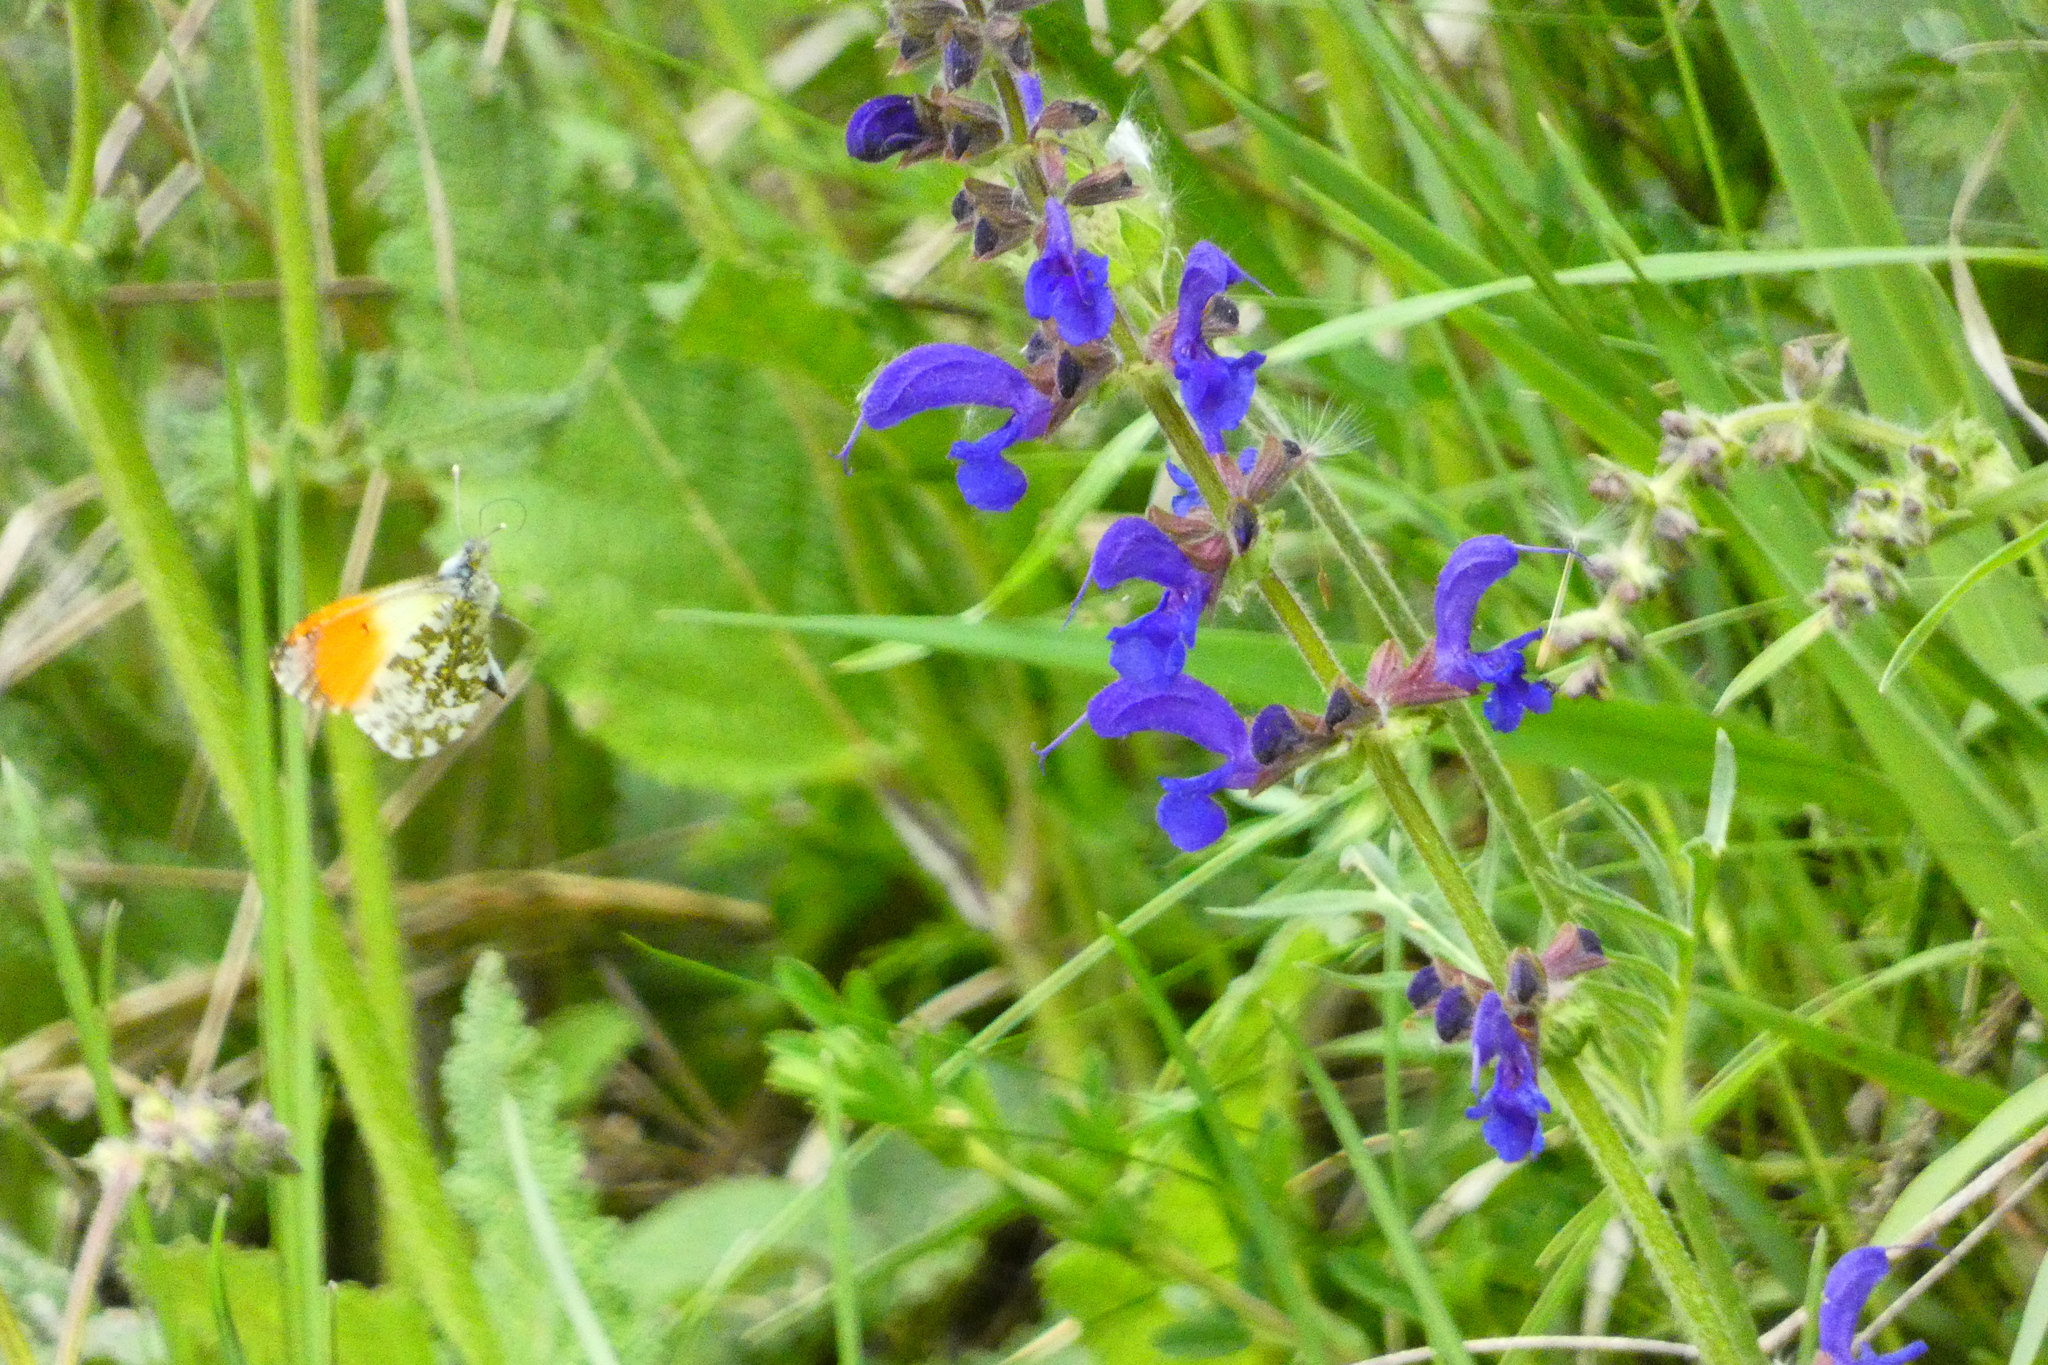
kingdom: Animalia
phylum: Arthropoda
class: Insecta
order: Lepidoptera
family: Pieridae
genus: Anthocharis
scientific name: Anthocharis cardamines
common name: Orange-tip
